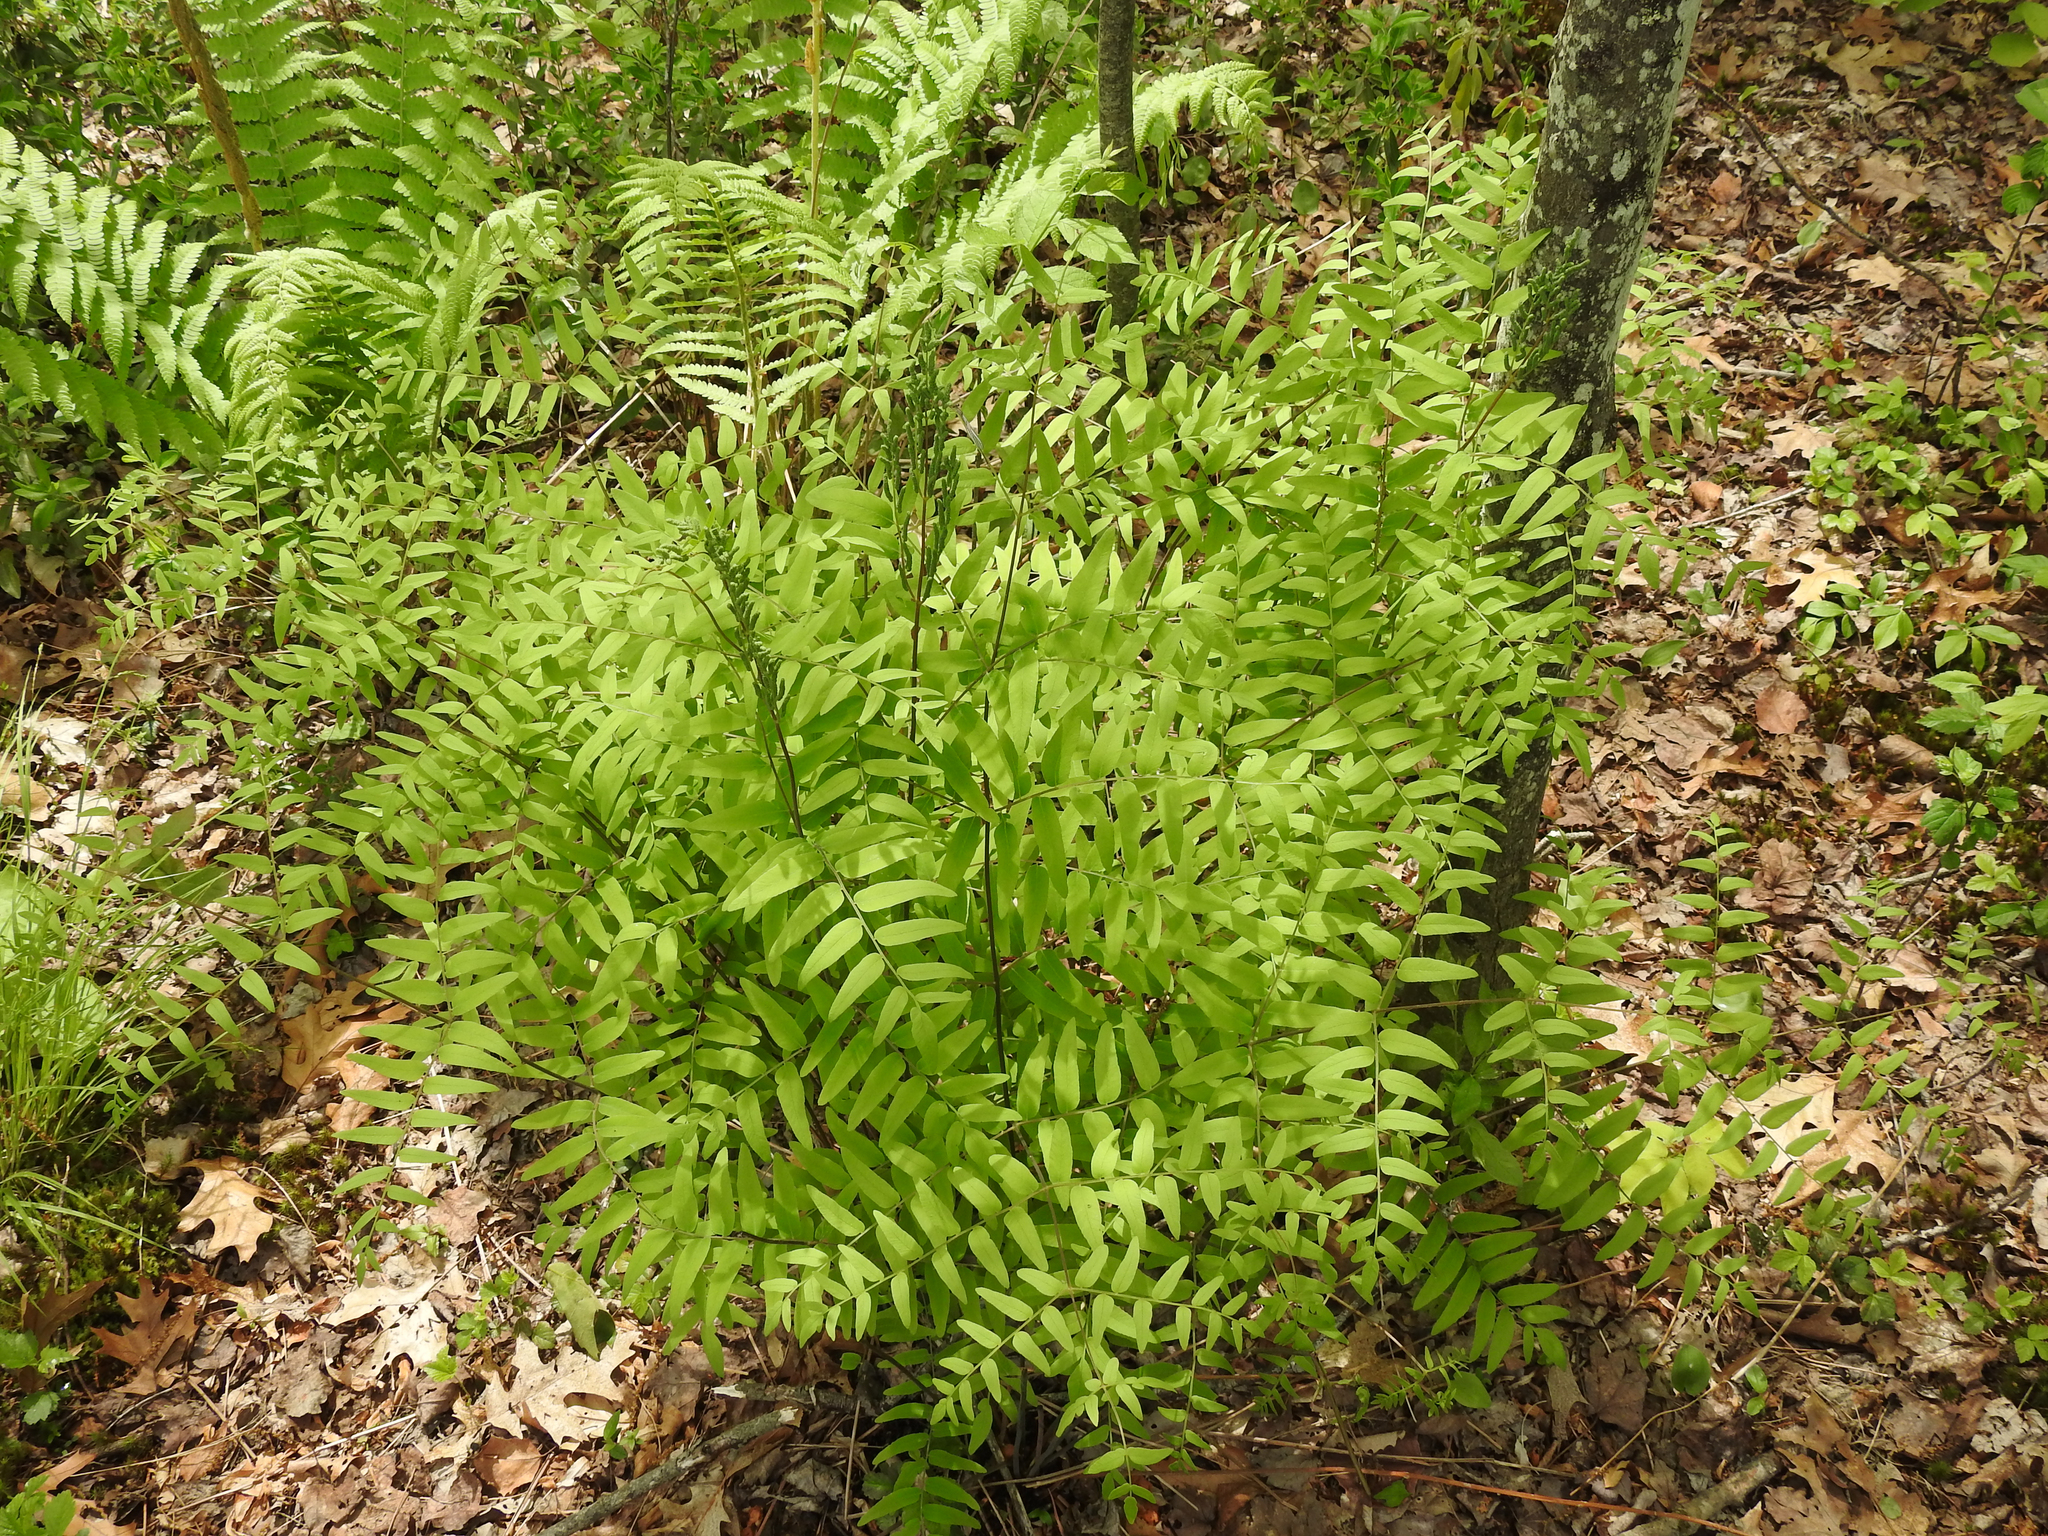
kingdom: Plantae
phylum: Tracheophyta
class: Polypodiopsida
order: Osmundales
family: Osmundaceae
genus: Osmunda
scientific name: Osmunda spectabilis
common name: American royal fern
